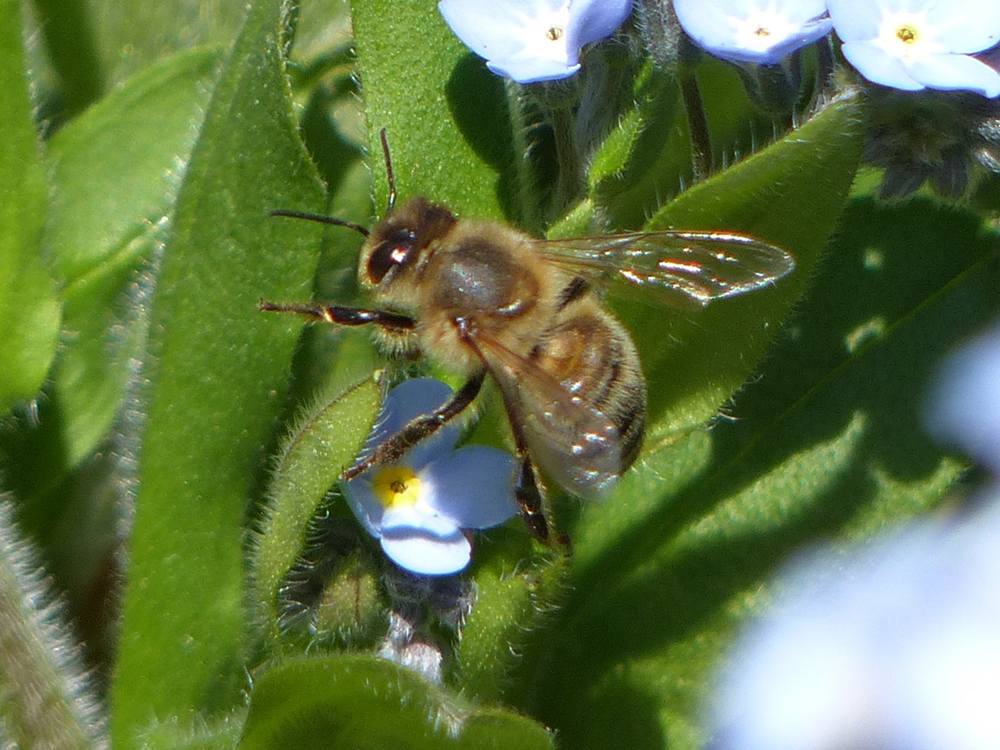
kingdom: Animalia
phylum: Arthropoda
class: Insecta
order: Hymenoptera
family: Apidae
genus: Apis
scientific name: Apis mellifera
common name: Honey bee
